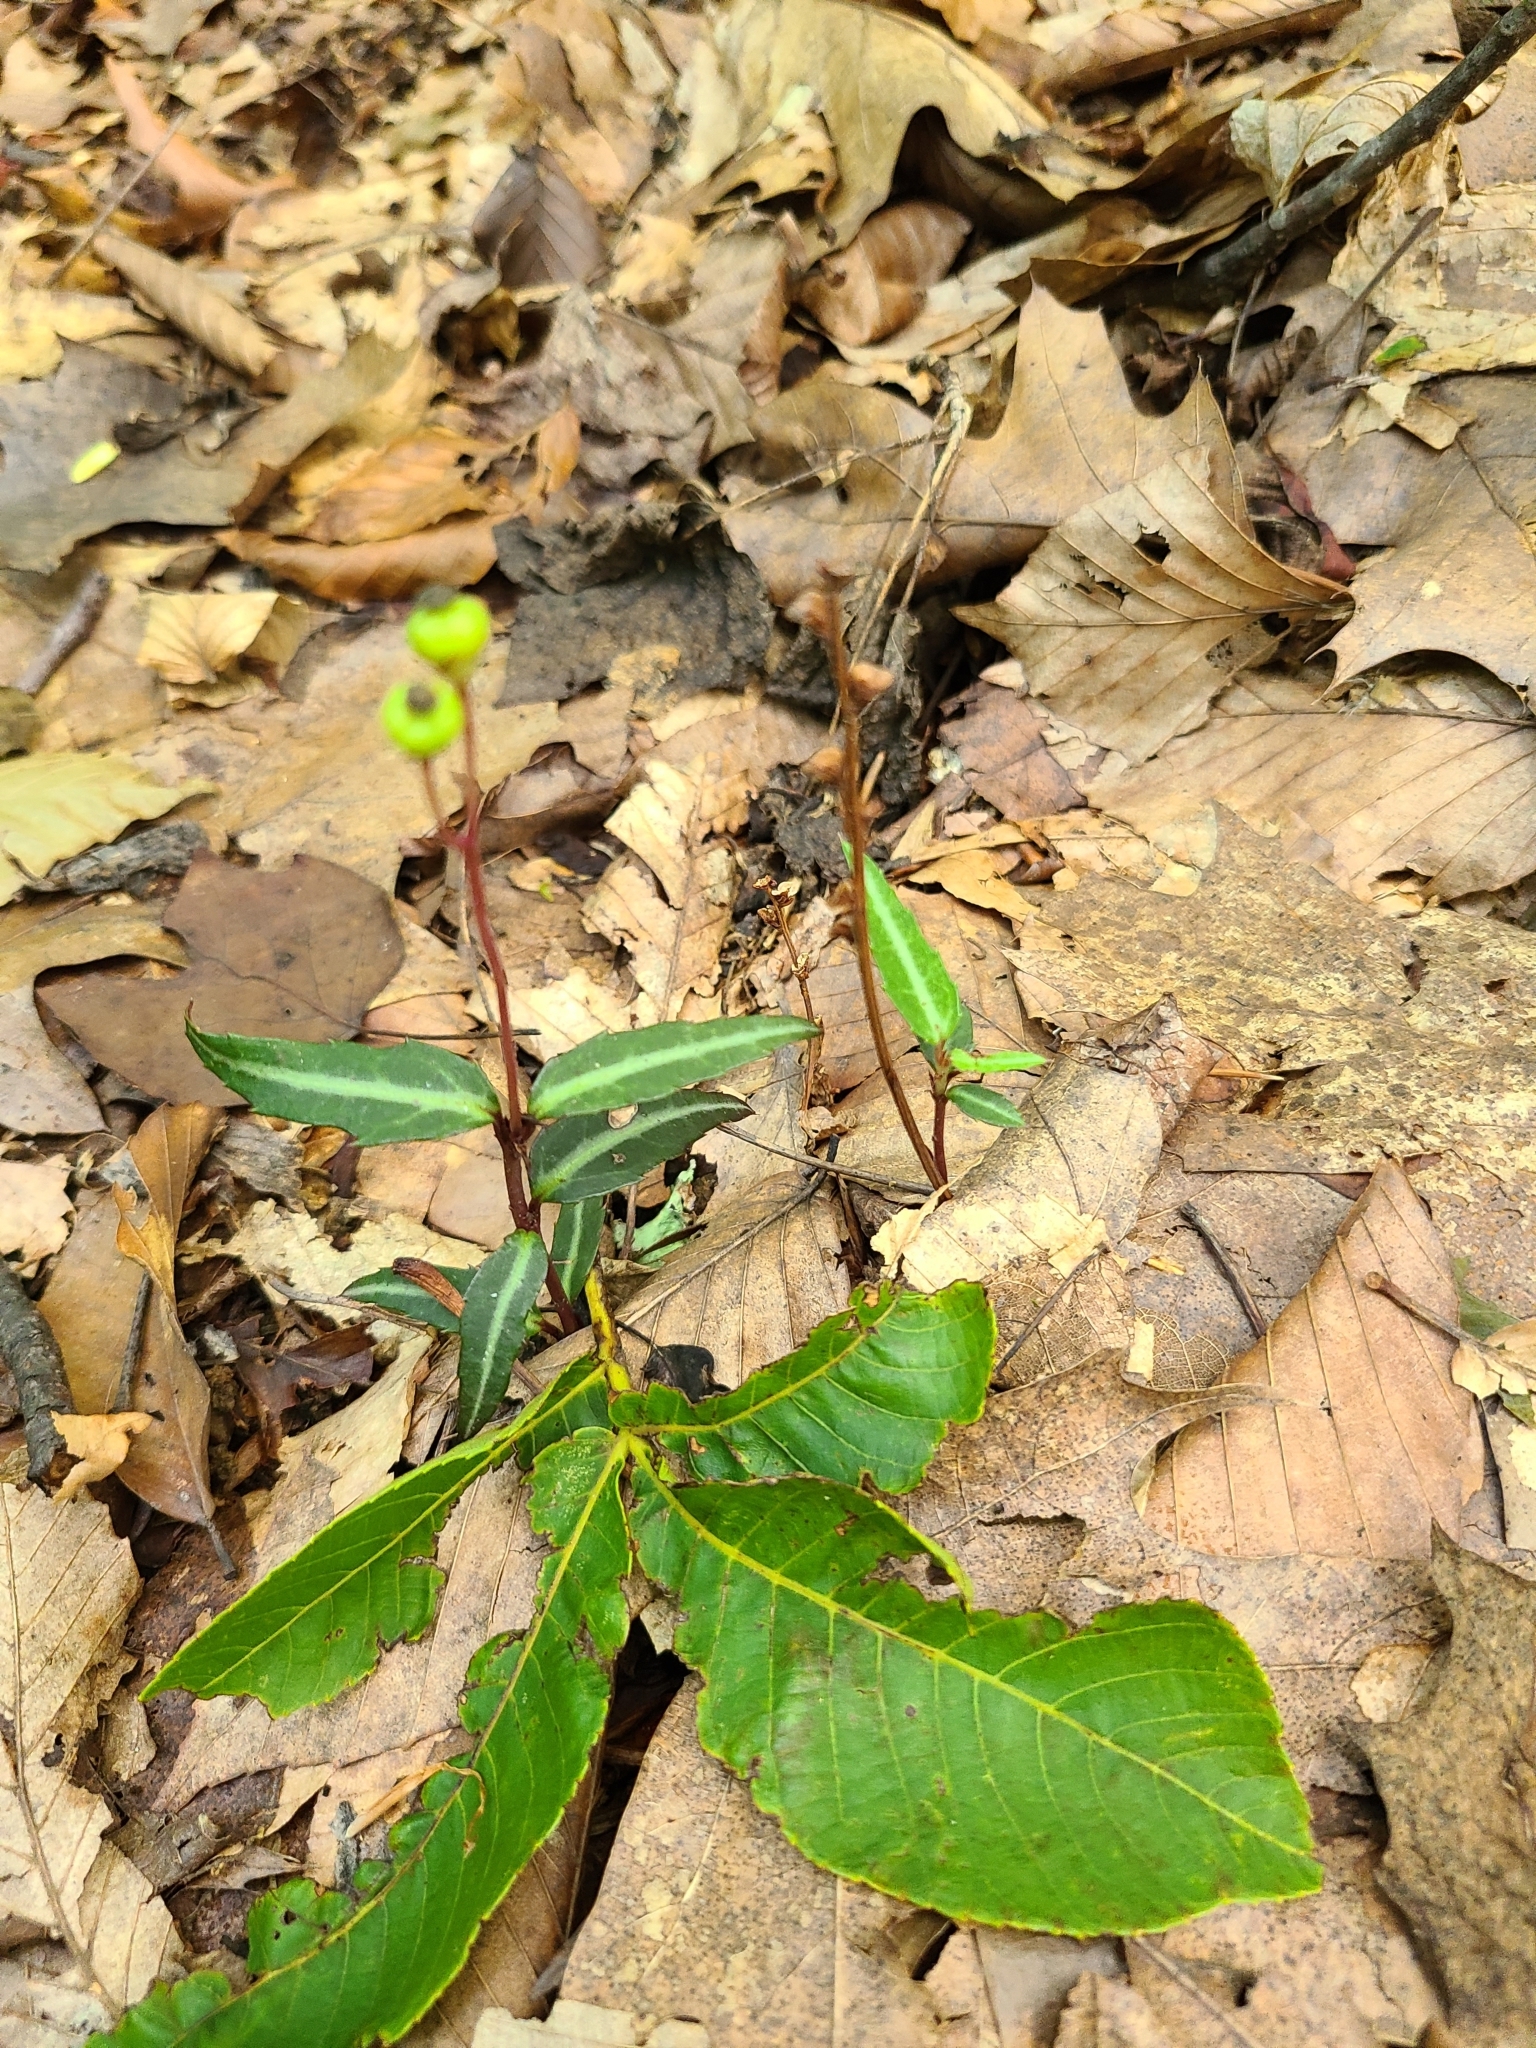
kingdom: Plantae
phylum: Tracheophyta
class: Magnoliopsida
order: Ericales
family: Ericaceae
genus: Chimaphila
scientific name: Chimaphila maculata
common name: Spotted pipsissewa
